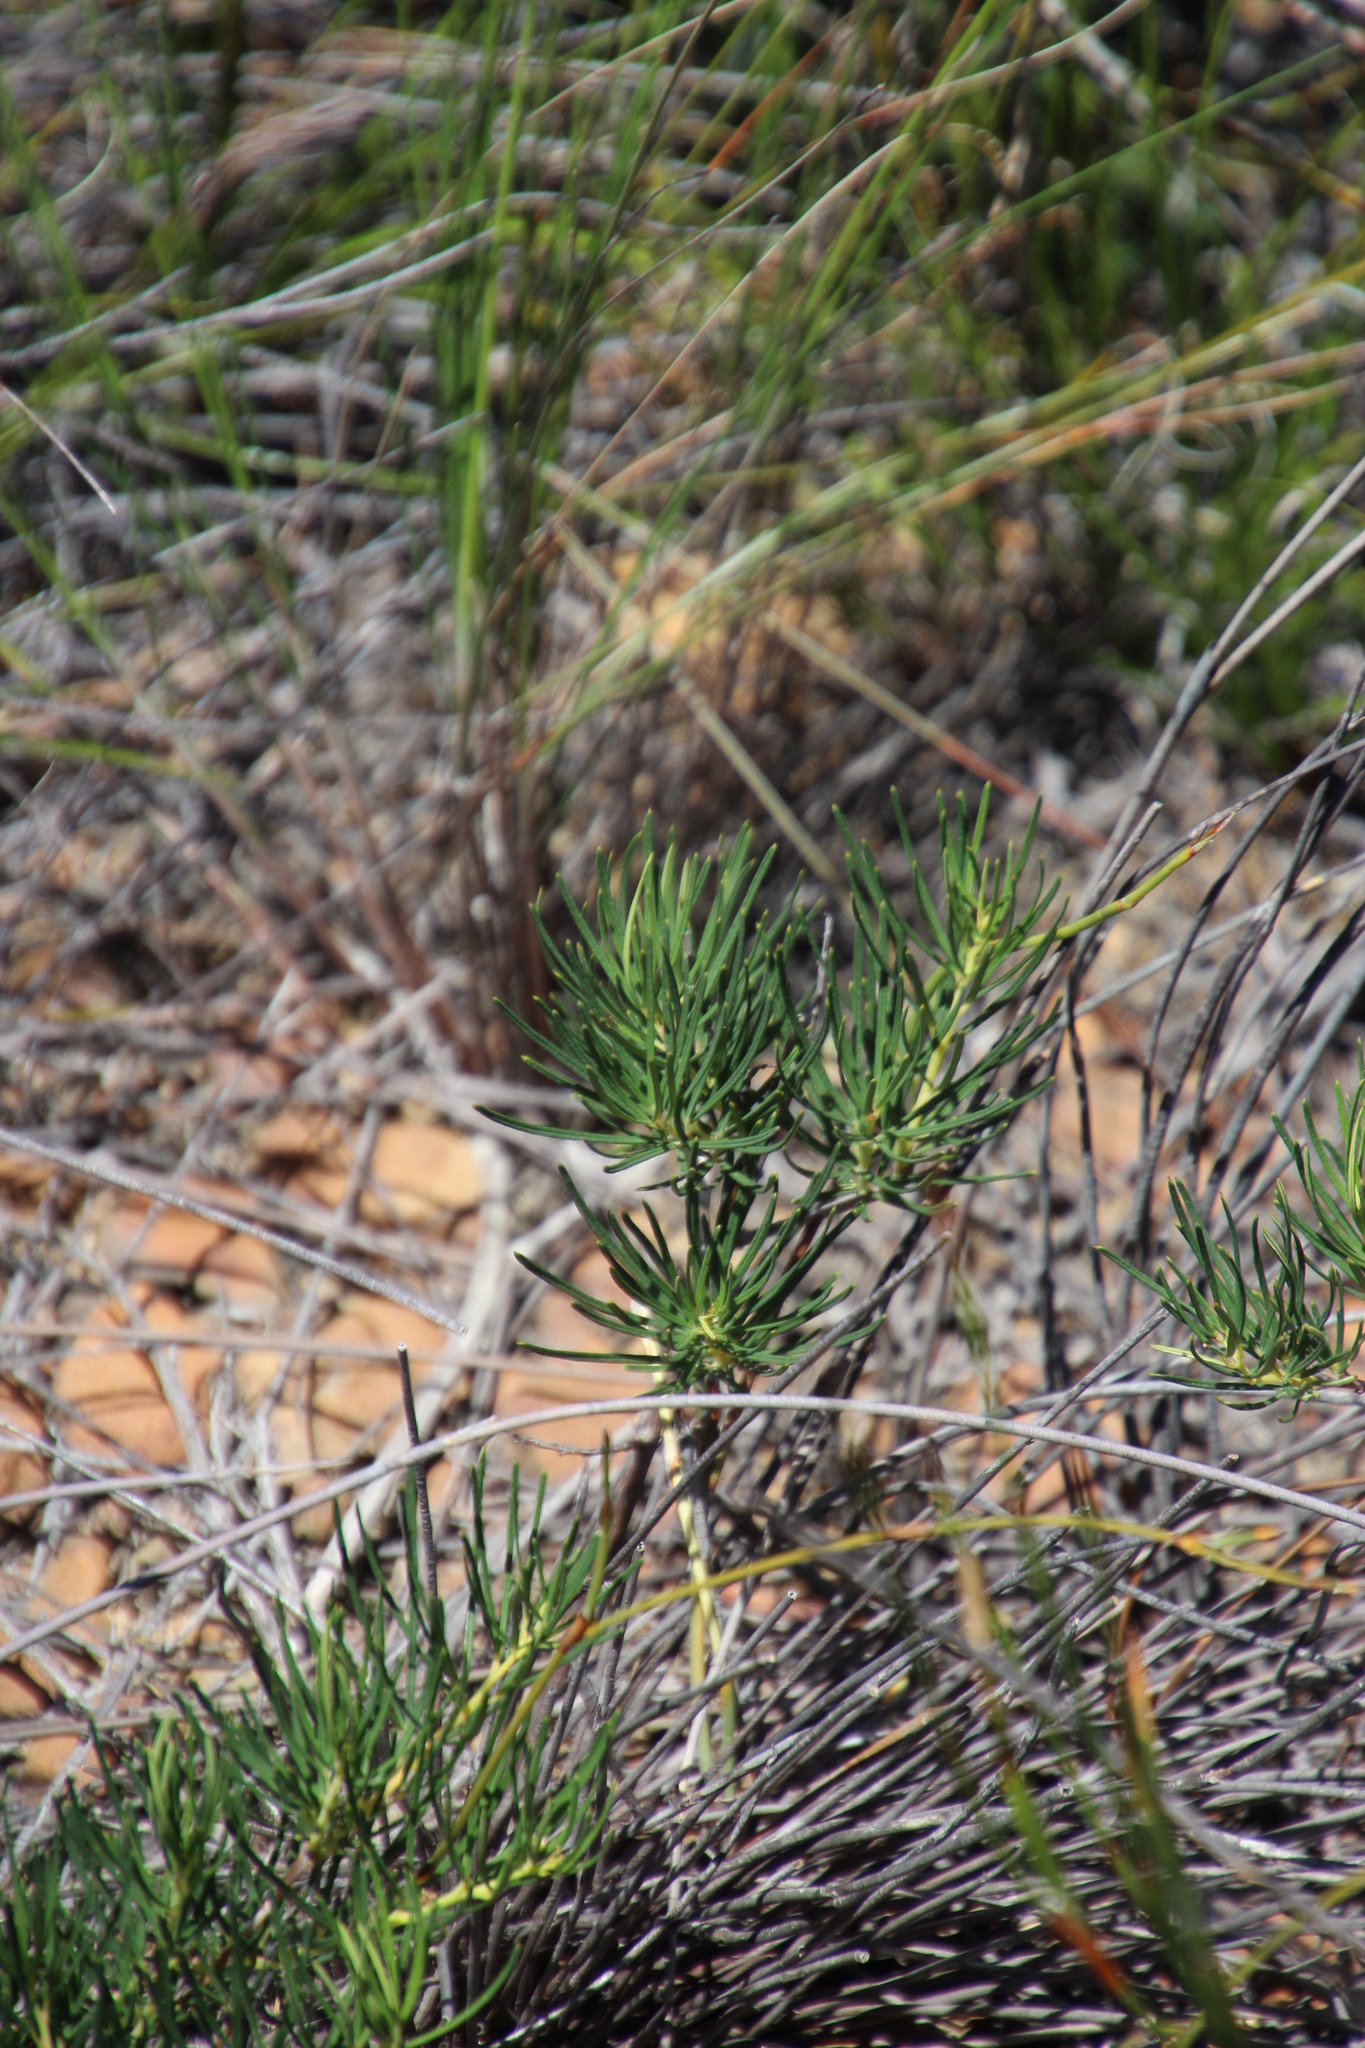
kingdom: Plantae
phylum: Tracheophyta
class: Magnoliopsida
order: Sapindales
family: Anacardiaceae
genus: Searsia
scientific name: Searsia rosmarinifolia
